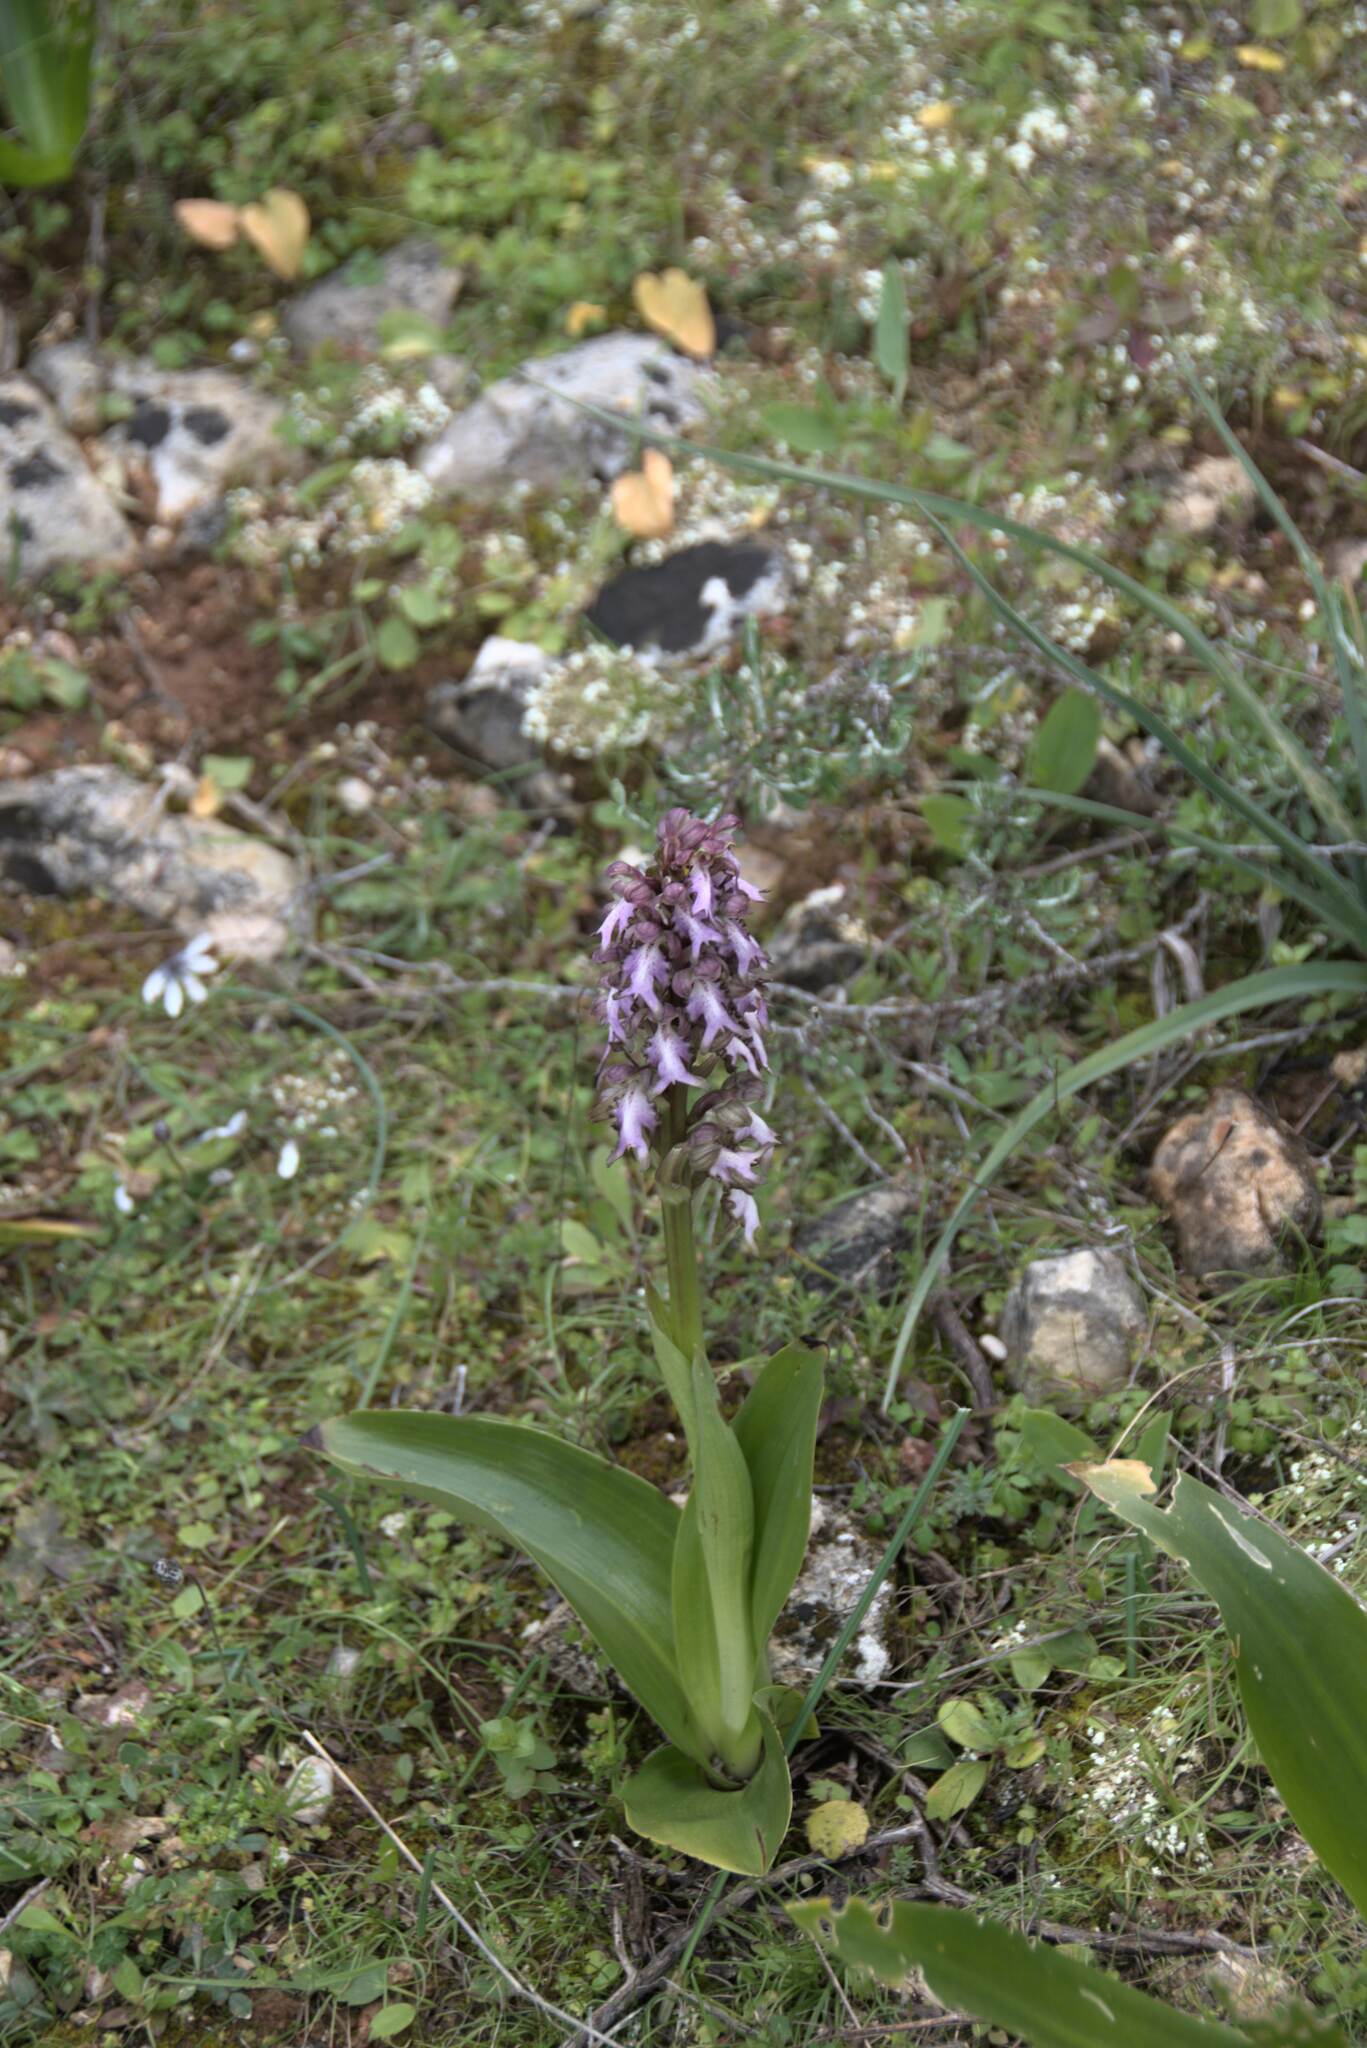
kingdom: Plantae
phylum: Tracheophyta
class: Liliopsida
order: Asparagales
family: Orchidaceae
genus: Himantoglossum
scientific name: Himantoglossum robertianum
